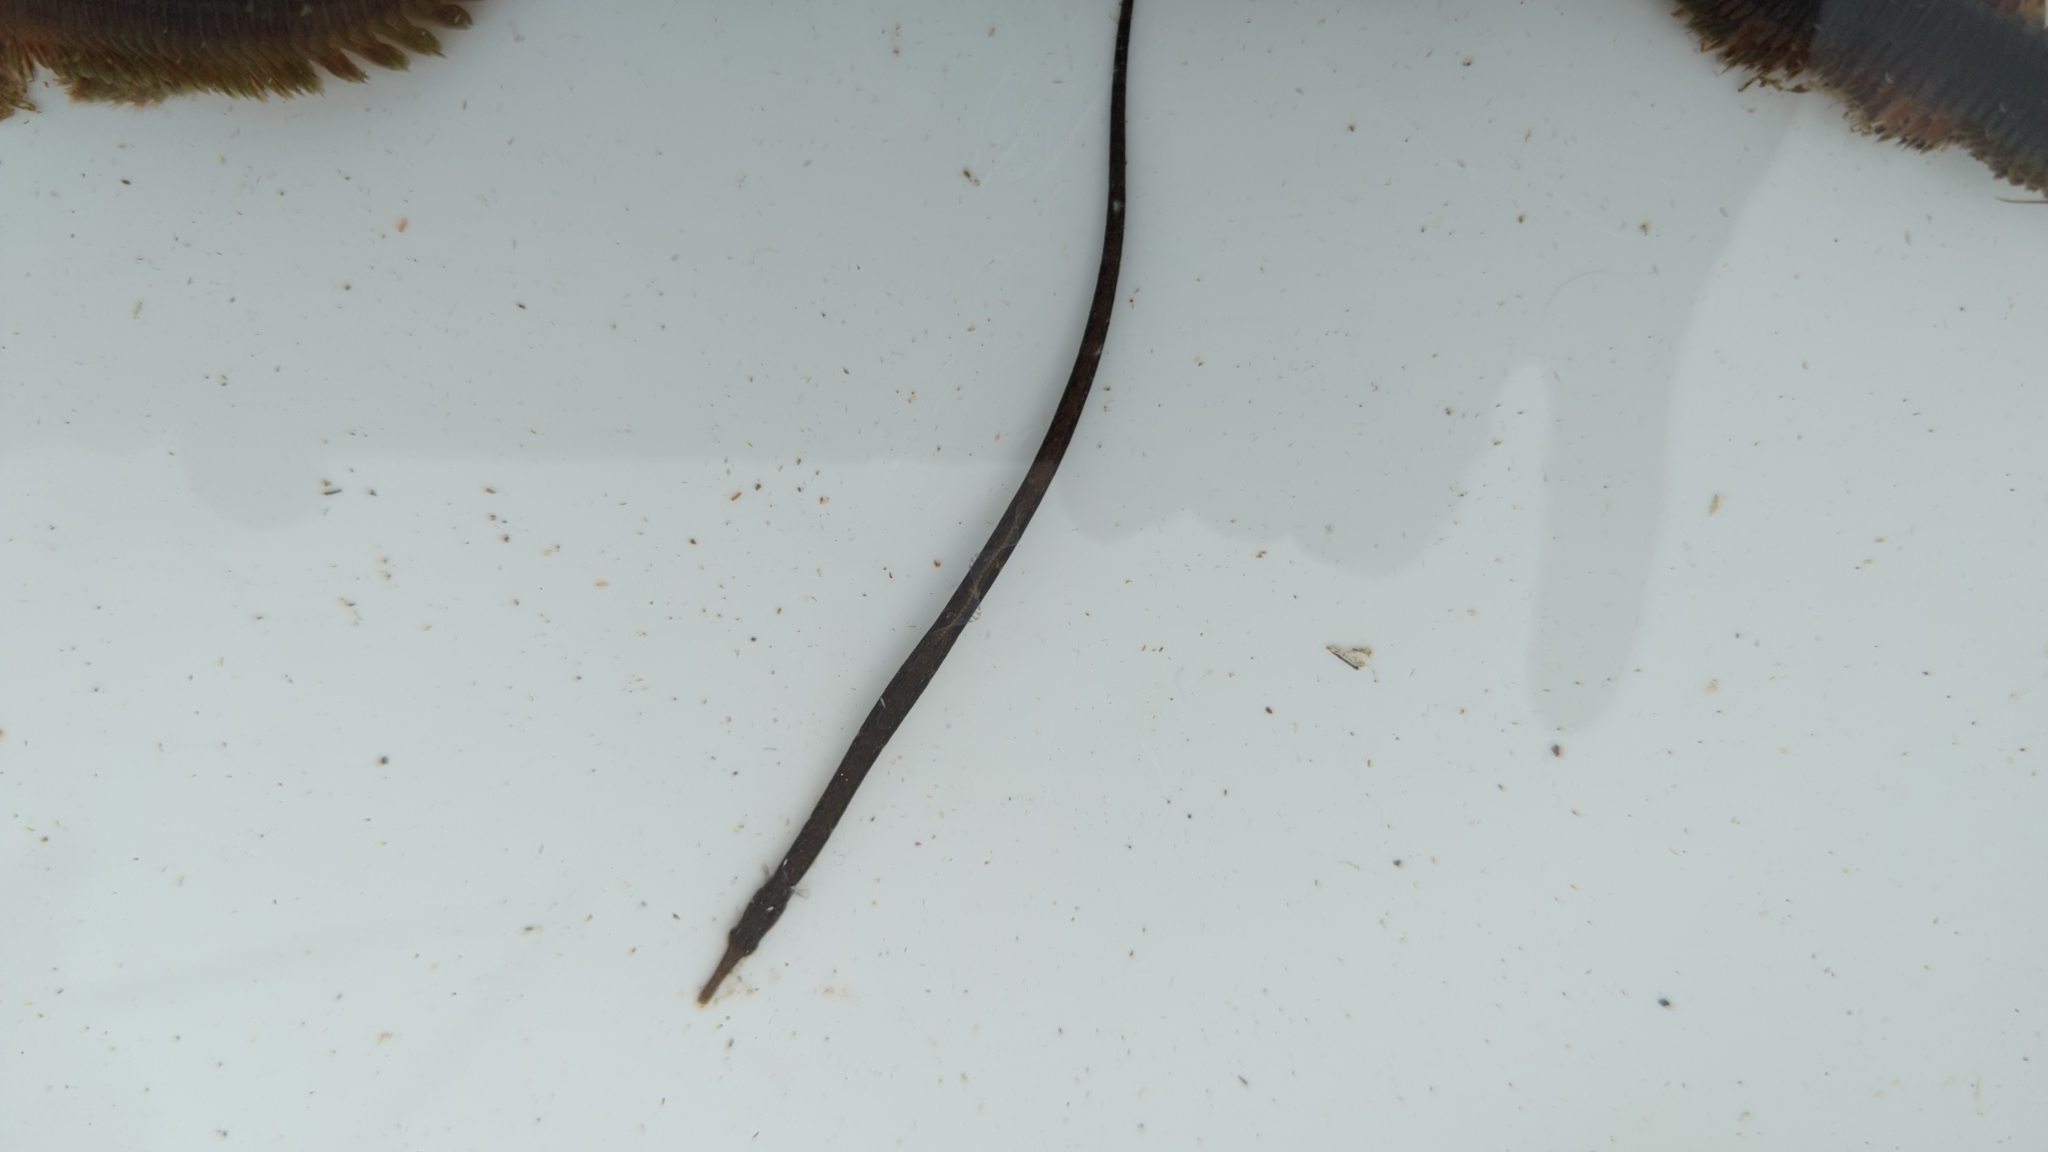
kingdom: Animalia
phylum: Chordata
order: Syngnathiformes
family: Syngnathidae
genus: Syngnathus
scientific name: Syngnathus californiensis
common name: Great pipefish
